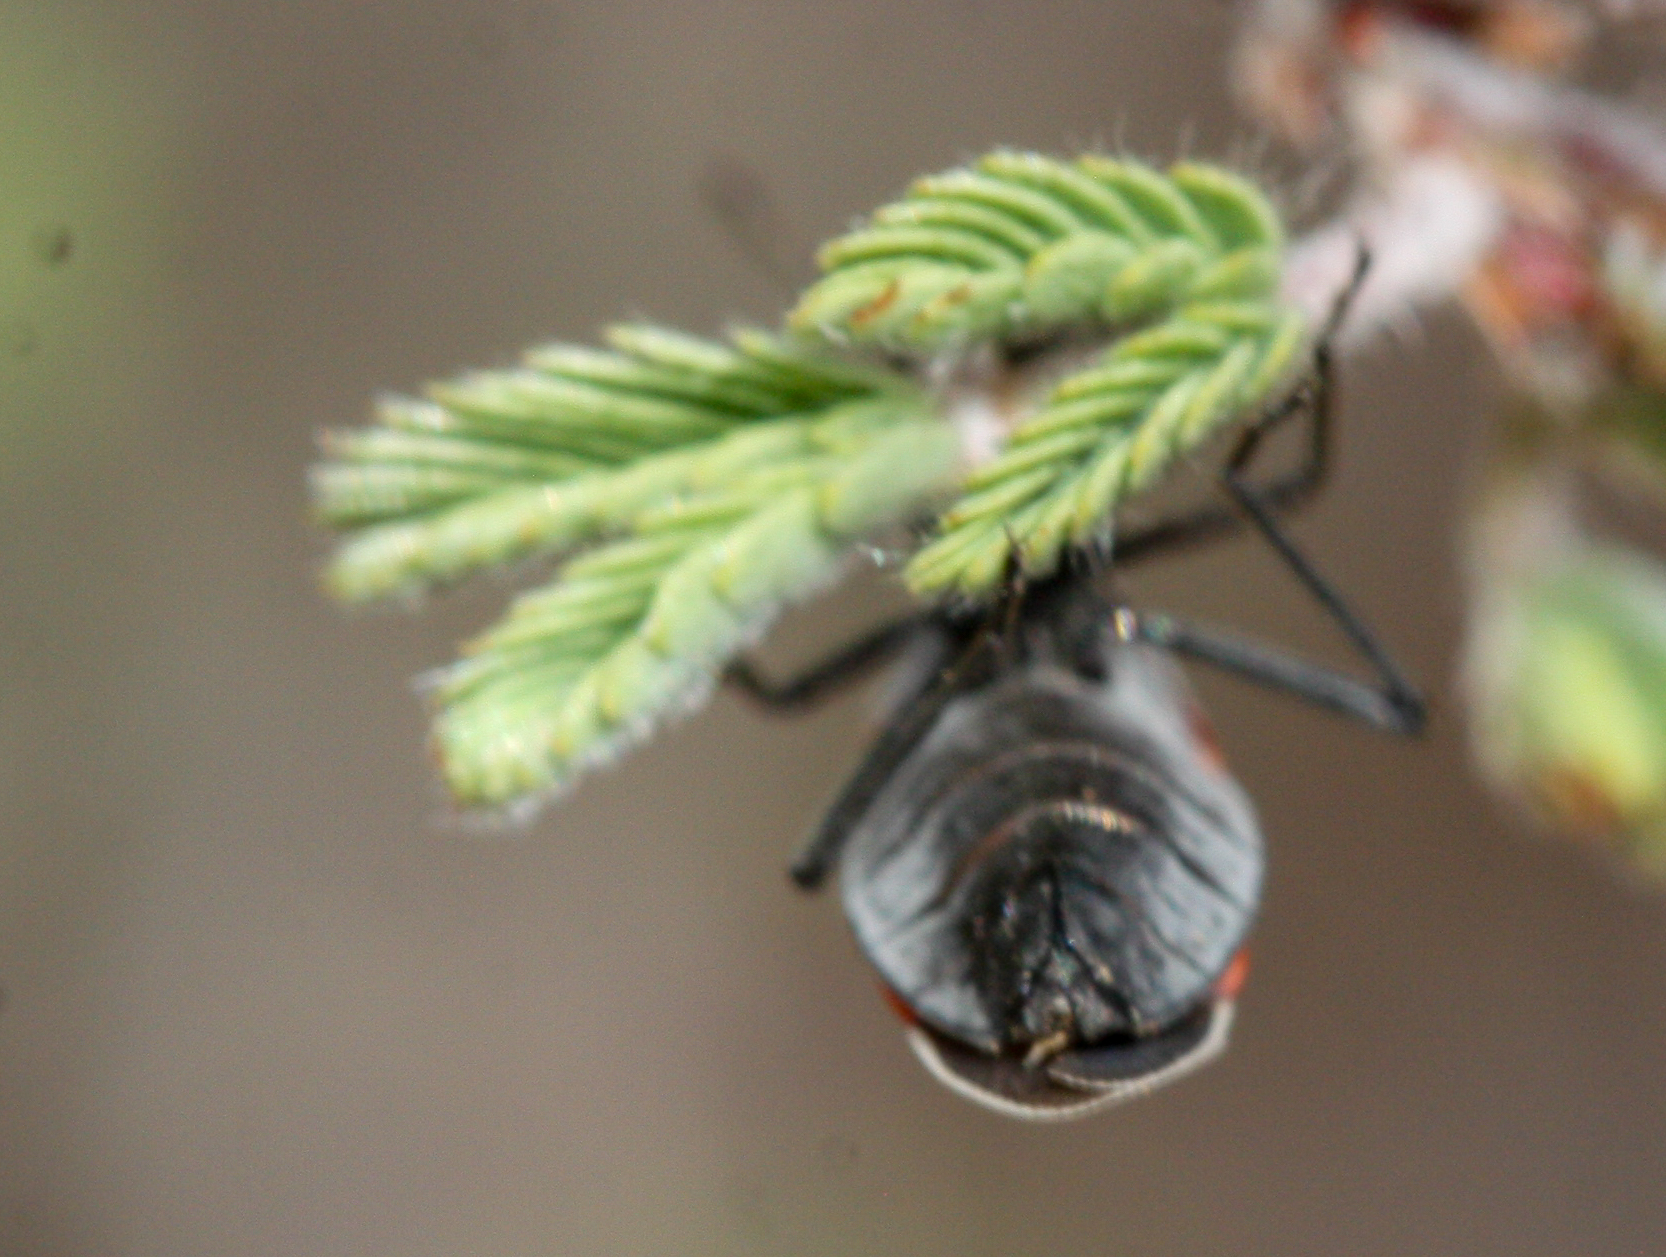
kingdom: Animalia
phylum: Arthropoda
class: Insecta
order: Hemiptera
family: Lygaeidae
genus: Melacoryphus
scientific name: Melacoryphus lateralis
